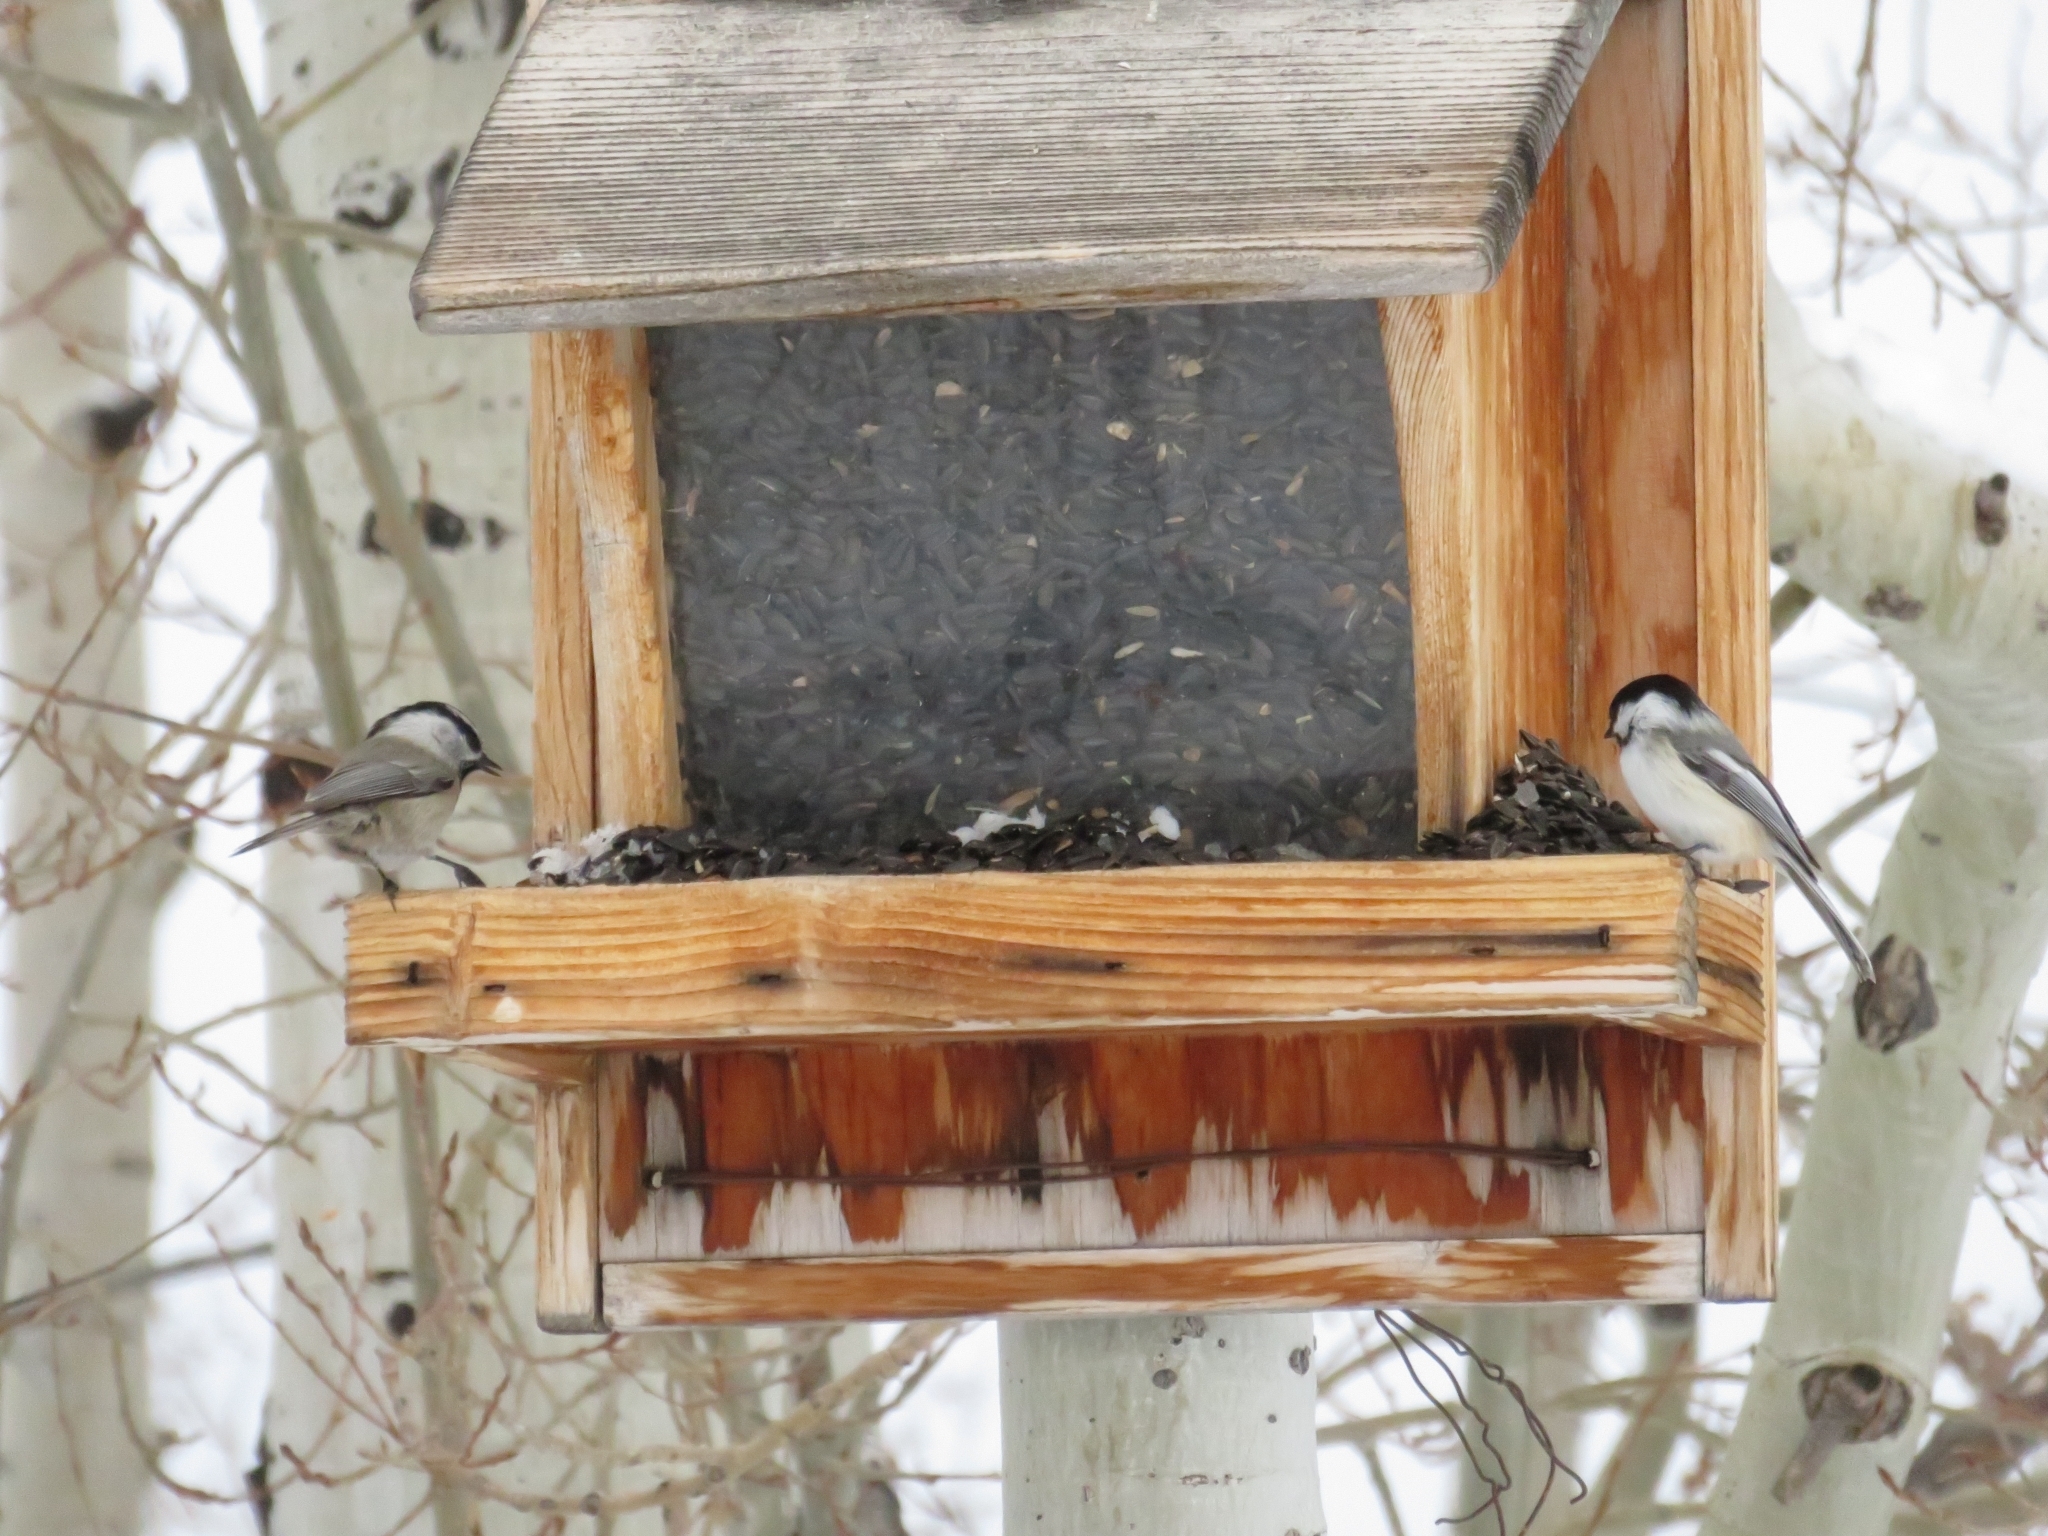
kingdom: Animalia
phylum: Chordata
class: Aves
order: Passeriformes
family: Paridae
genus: Poecile
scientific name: Poecile gambeli
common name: Mountain chickadee
